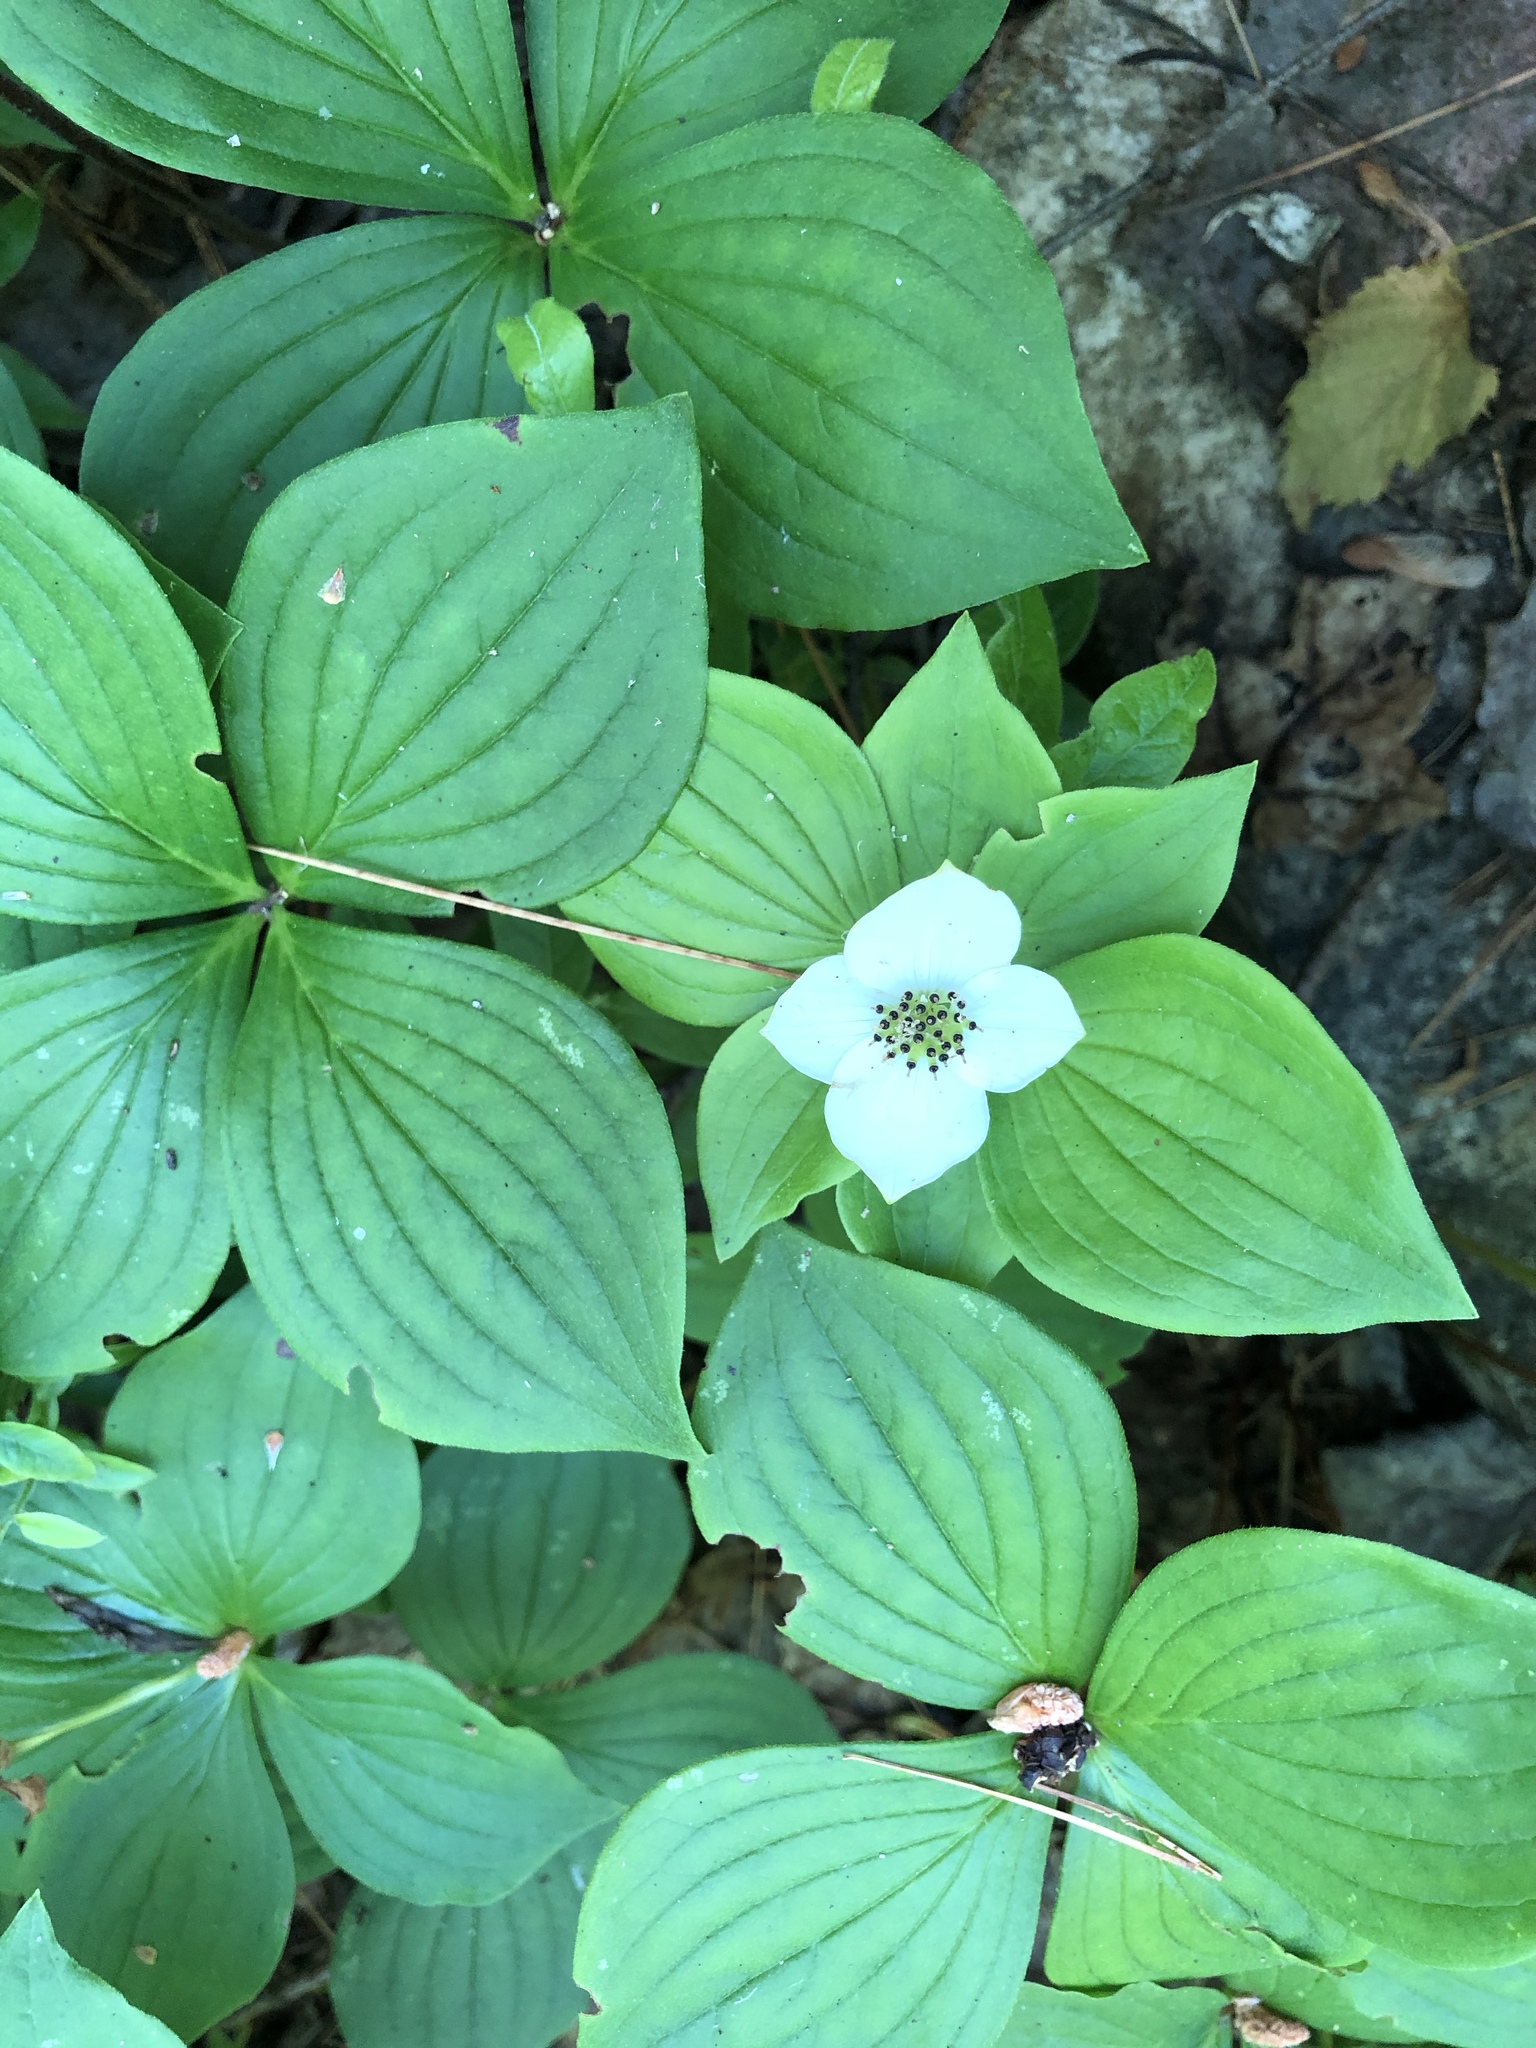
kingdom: Plantae
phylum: Tracheophyta
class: Magnoliopsida
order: Cornales
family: Cornaceae
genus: Cornus
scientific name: Cornus canadensis
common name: Creeping dogwood
